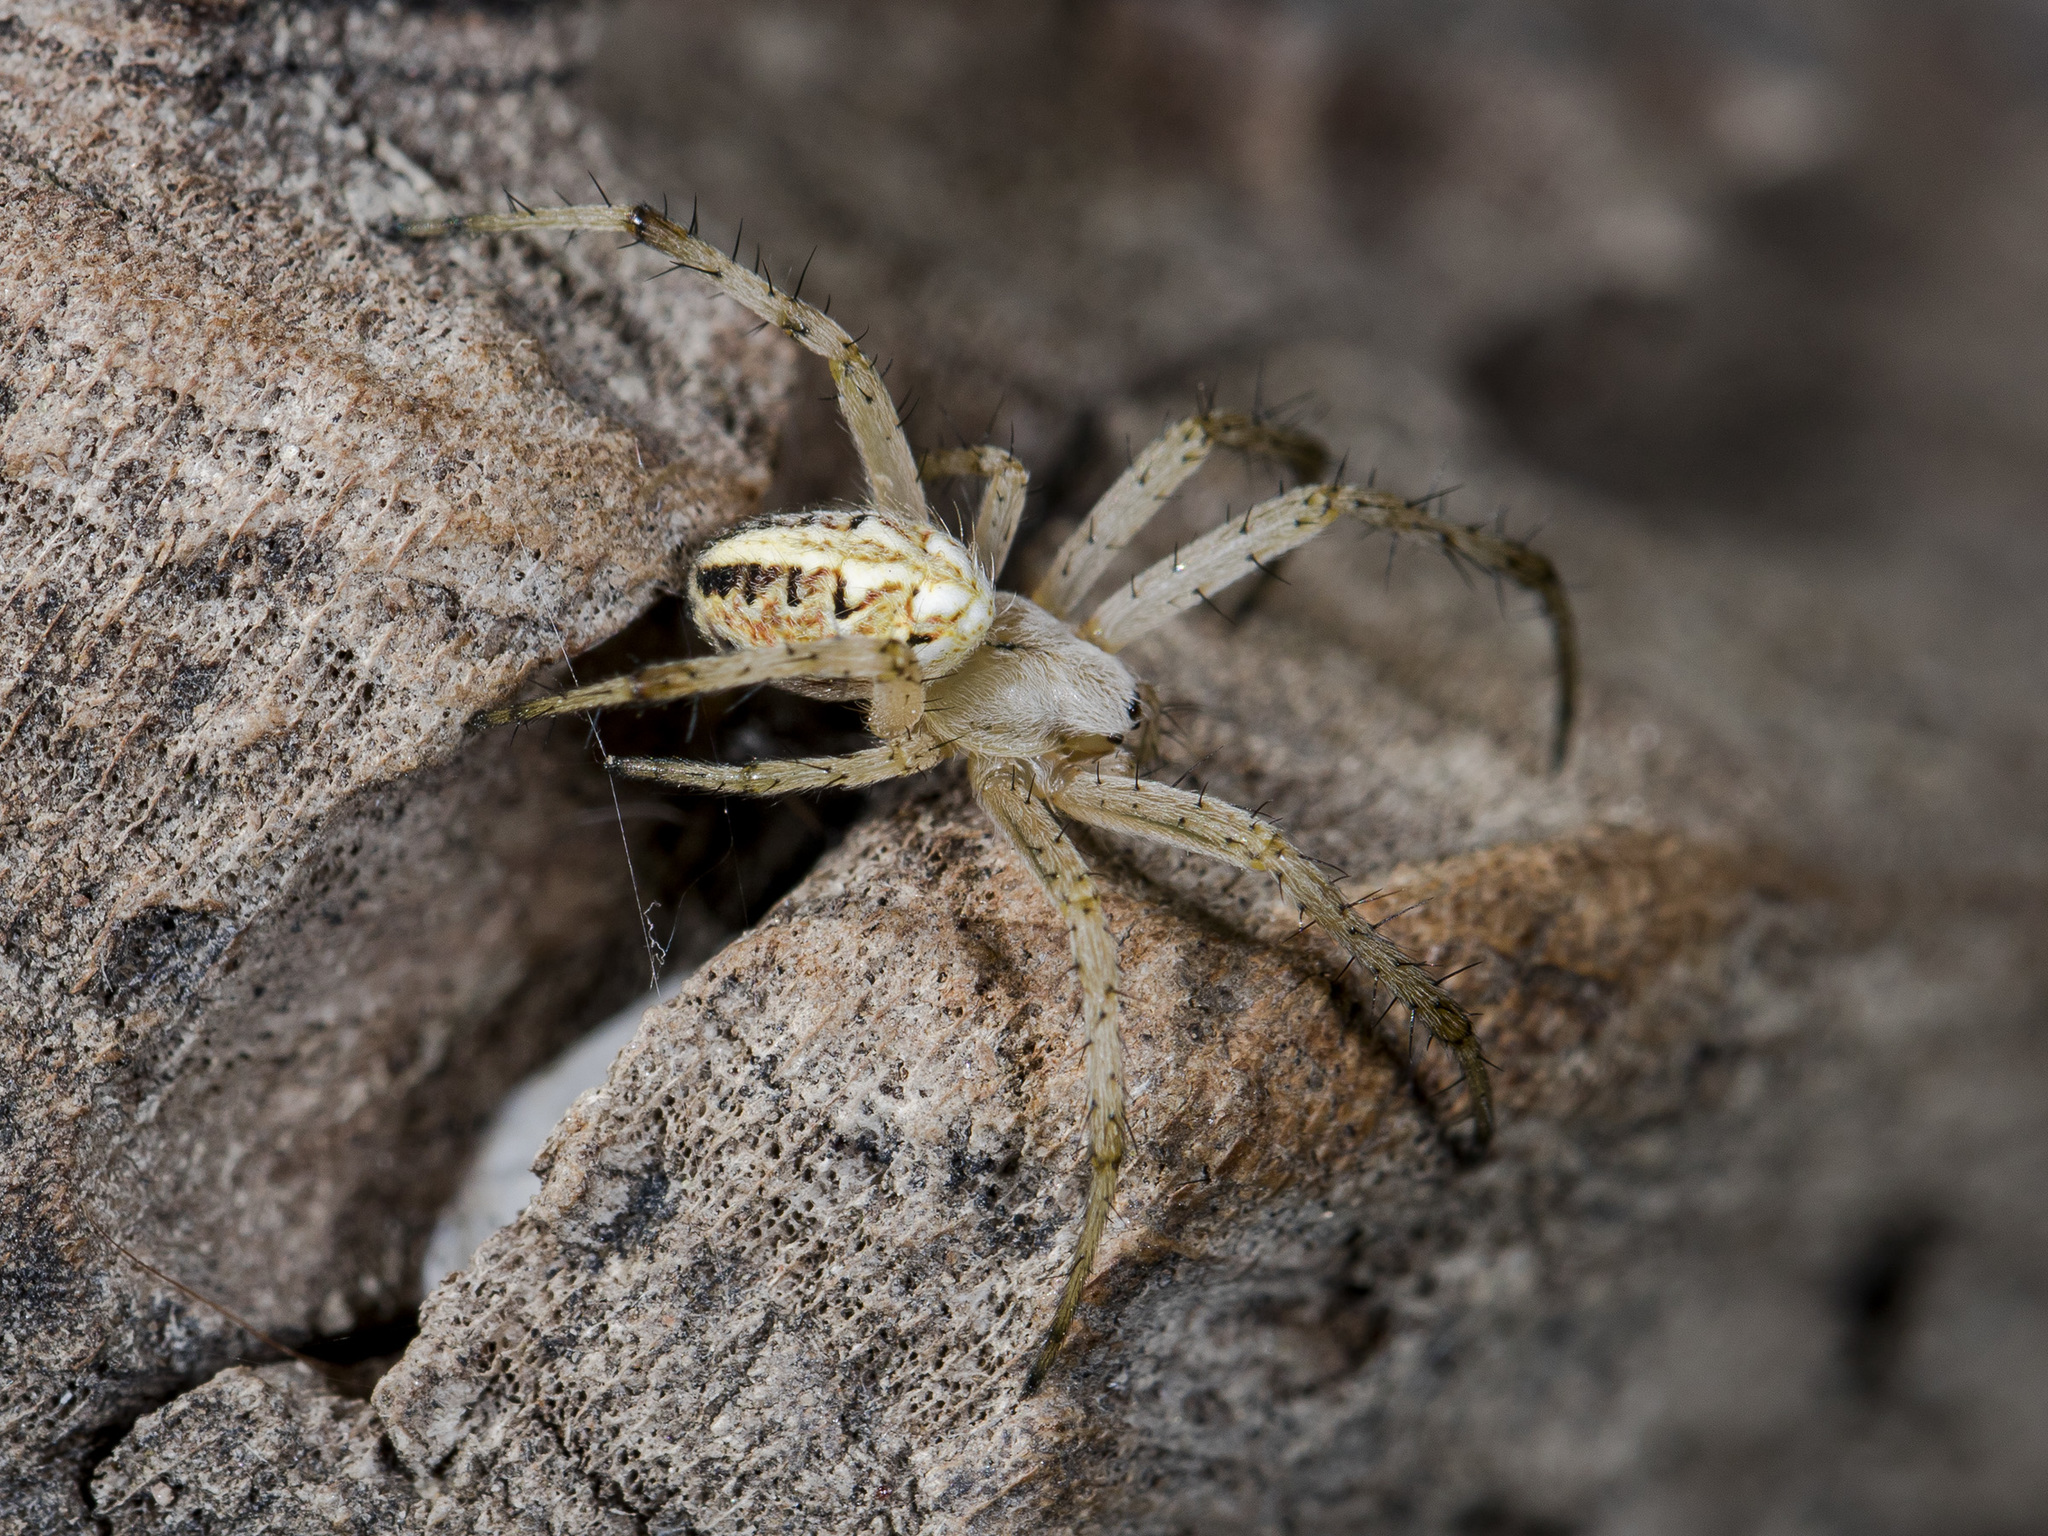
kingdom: Animalia
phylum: Arthropoda
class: Arachnida
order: Araneae
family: Araneidae
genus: Neoscona
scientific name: Neoscona adianta
